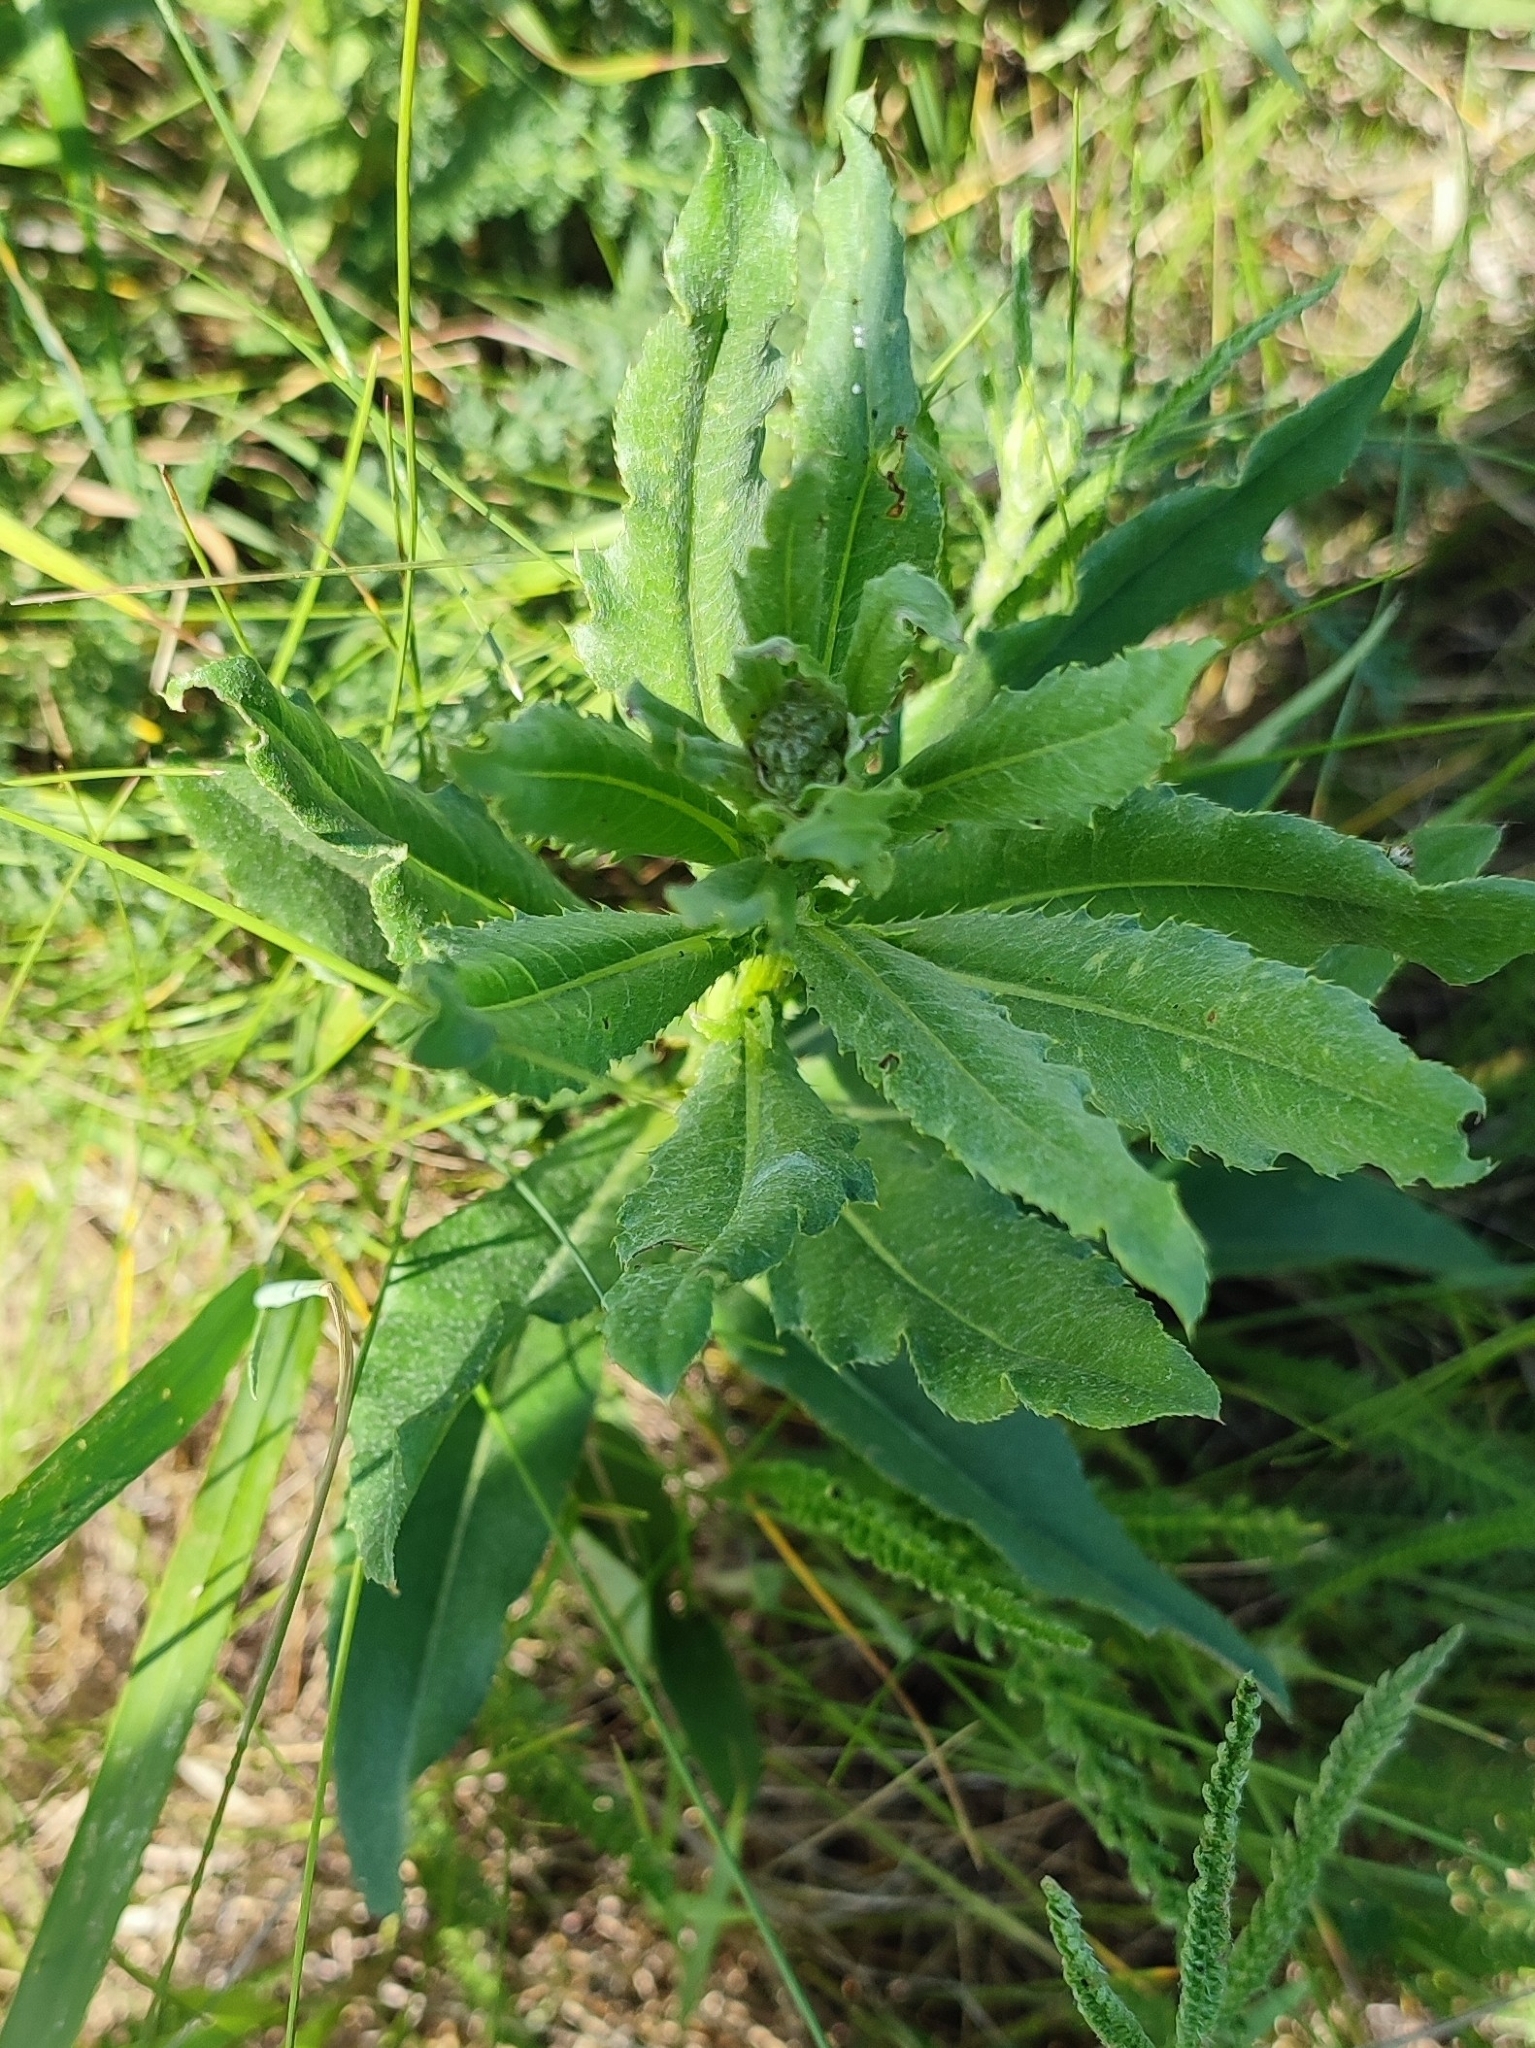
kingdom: Plantae
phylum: Tracheophyta
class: Magnoliopsida
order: Asterales
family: Asteraceae
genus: Cirsium
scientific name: Cirsium arvense
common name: Creeping thistle
